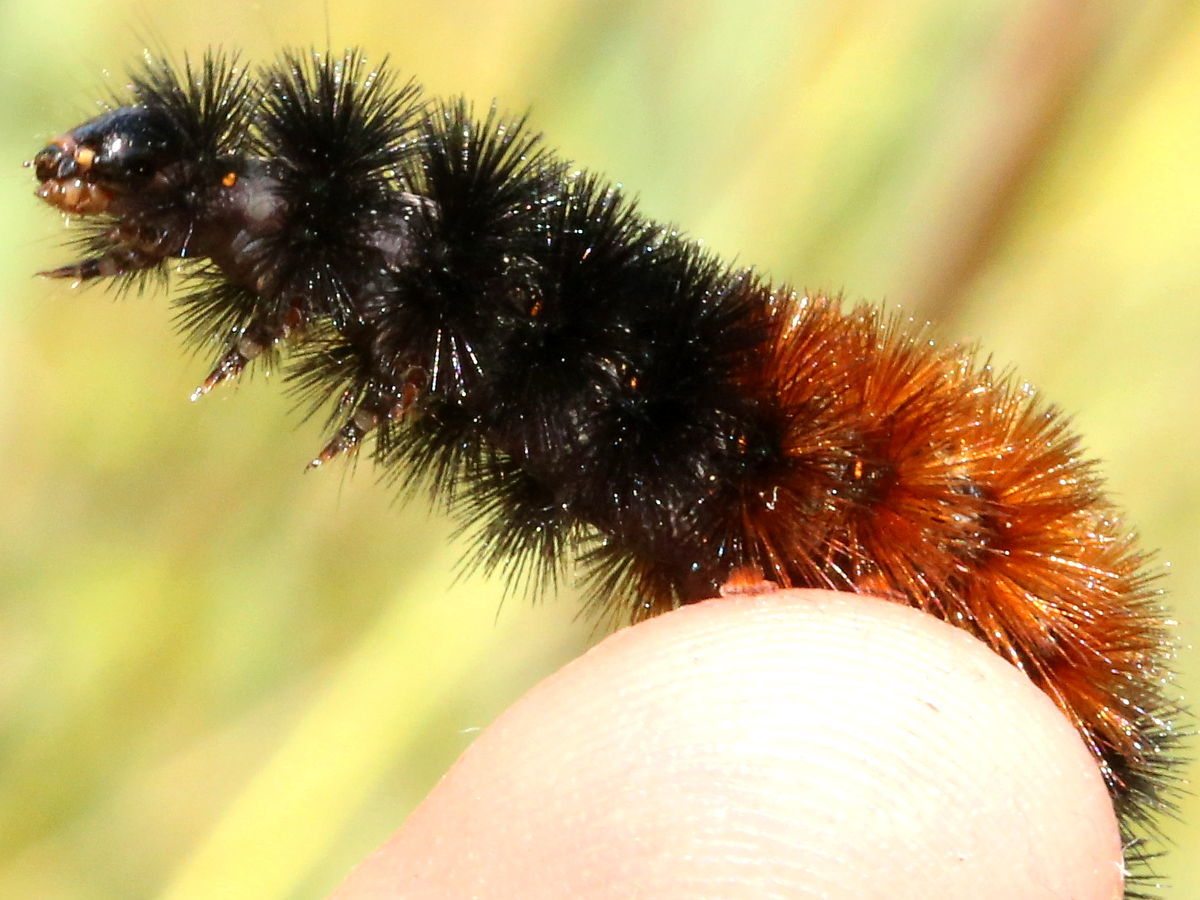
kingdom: Animalia
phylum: Arthropoda
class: Insecta
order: Lepidoptera
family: Erebidae
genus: Pyrrharctia
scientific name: Pyrrharctia isabella
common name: Isabella tiger moth
